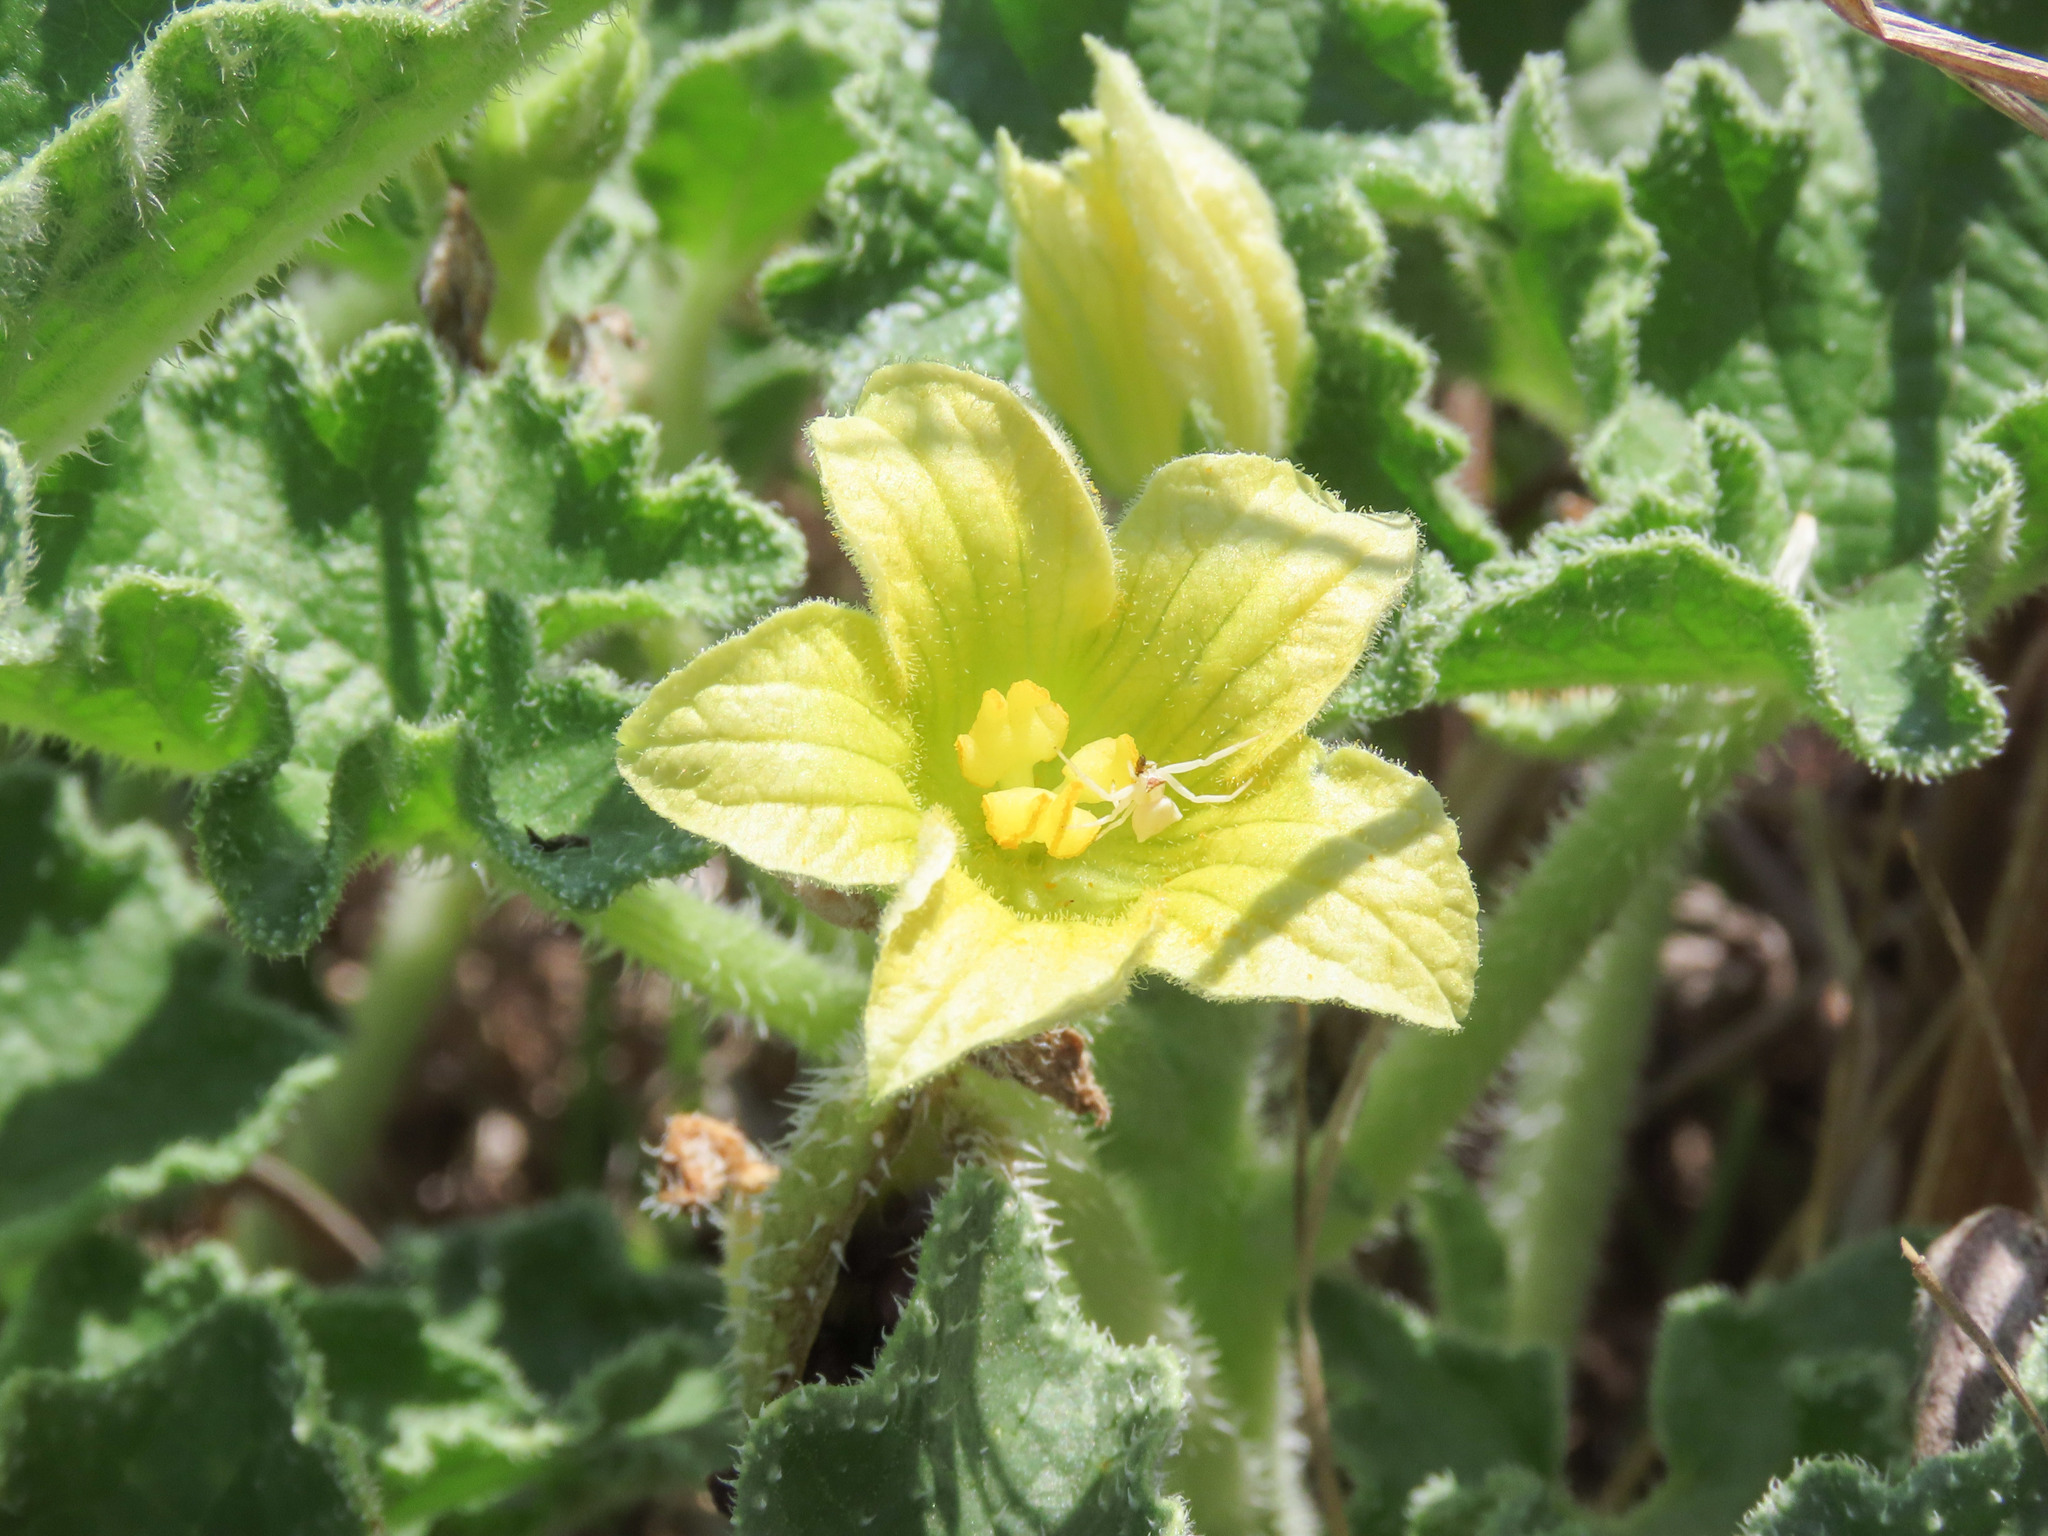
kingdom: Plantae
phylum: Tracheophyta
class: Magnoliopsida
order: Cucurbitales
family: Cucurbitaceae
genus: Ecballium
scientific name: Ecballium elaterium
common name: Squirting cucumber
